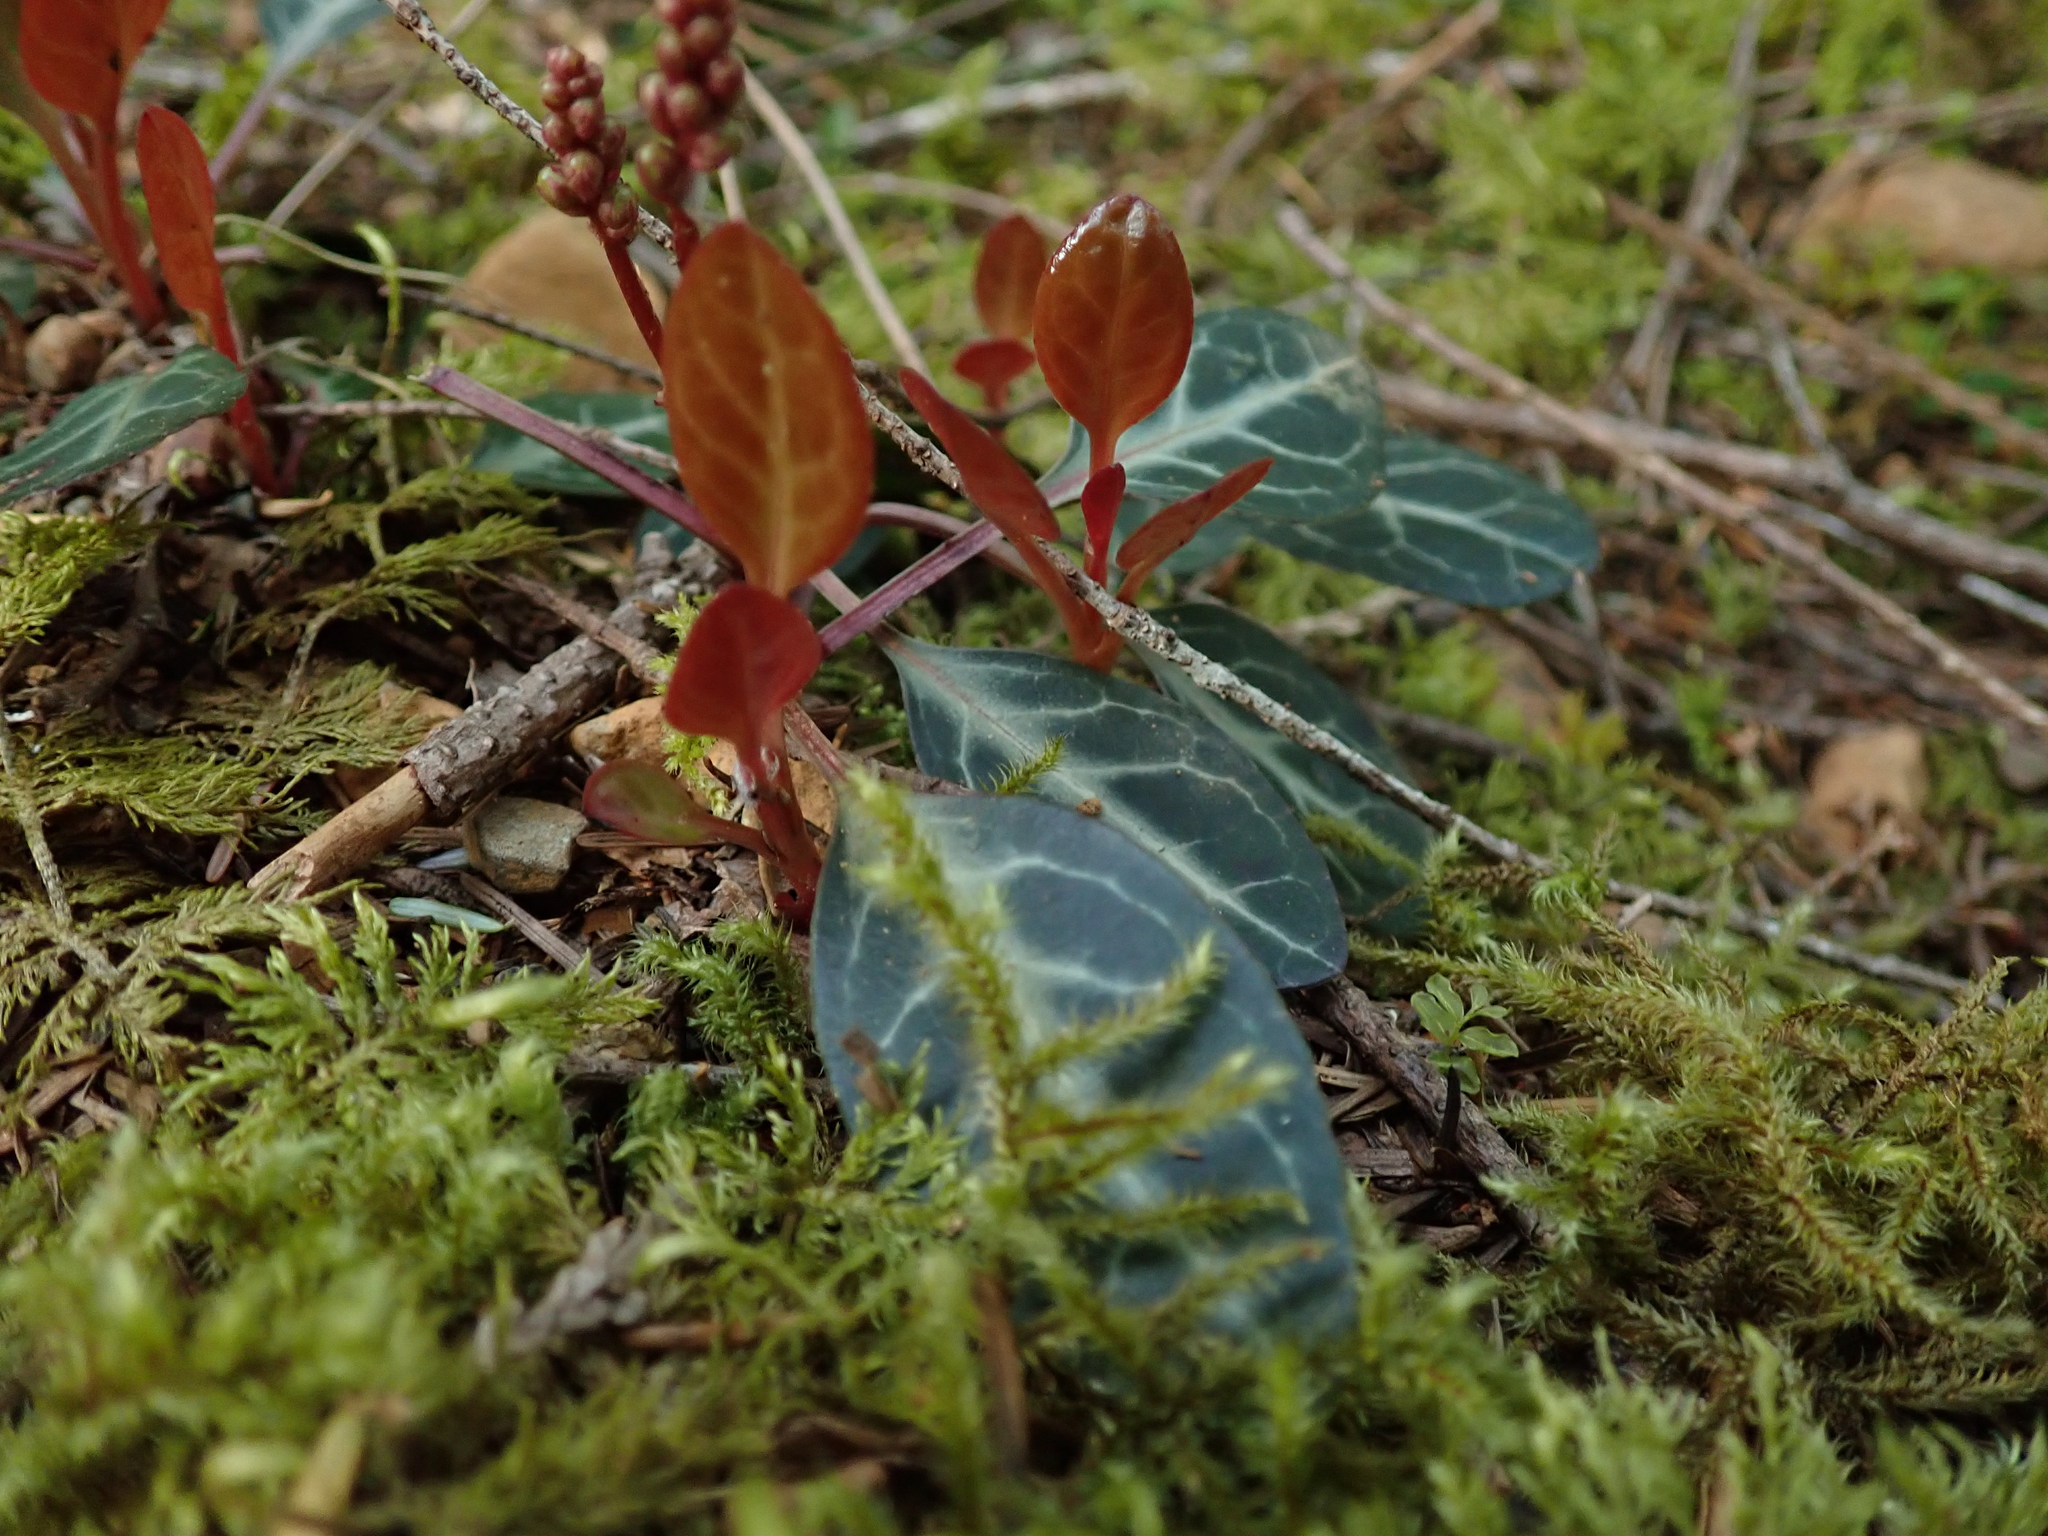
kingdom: Plantae
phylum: Tracheophyta
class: Magnoliopsida
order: Ericales
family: Ericaceae
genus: Pyrola
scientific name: Pyrola picta
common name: White-vein wintergreen
